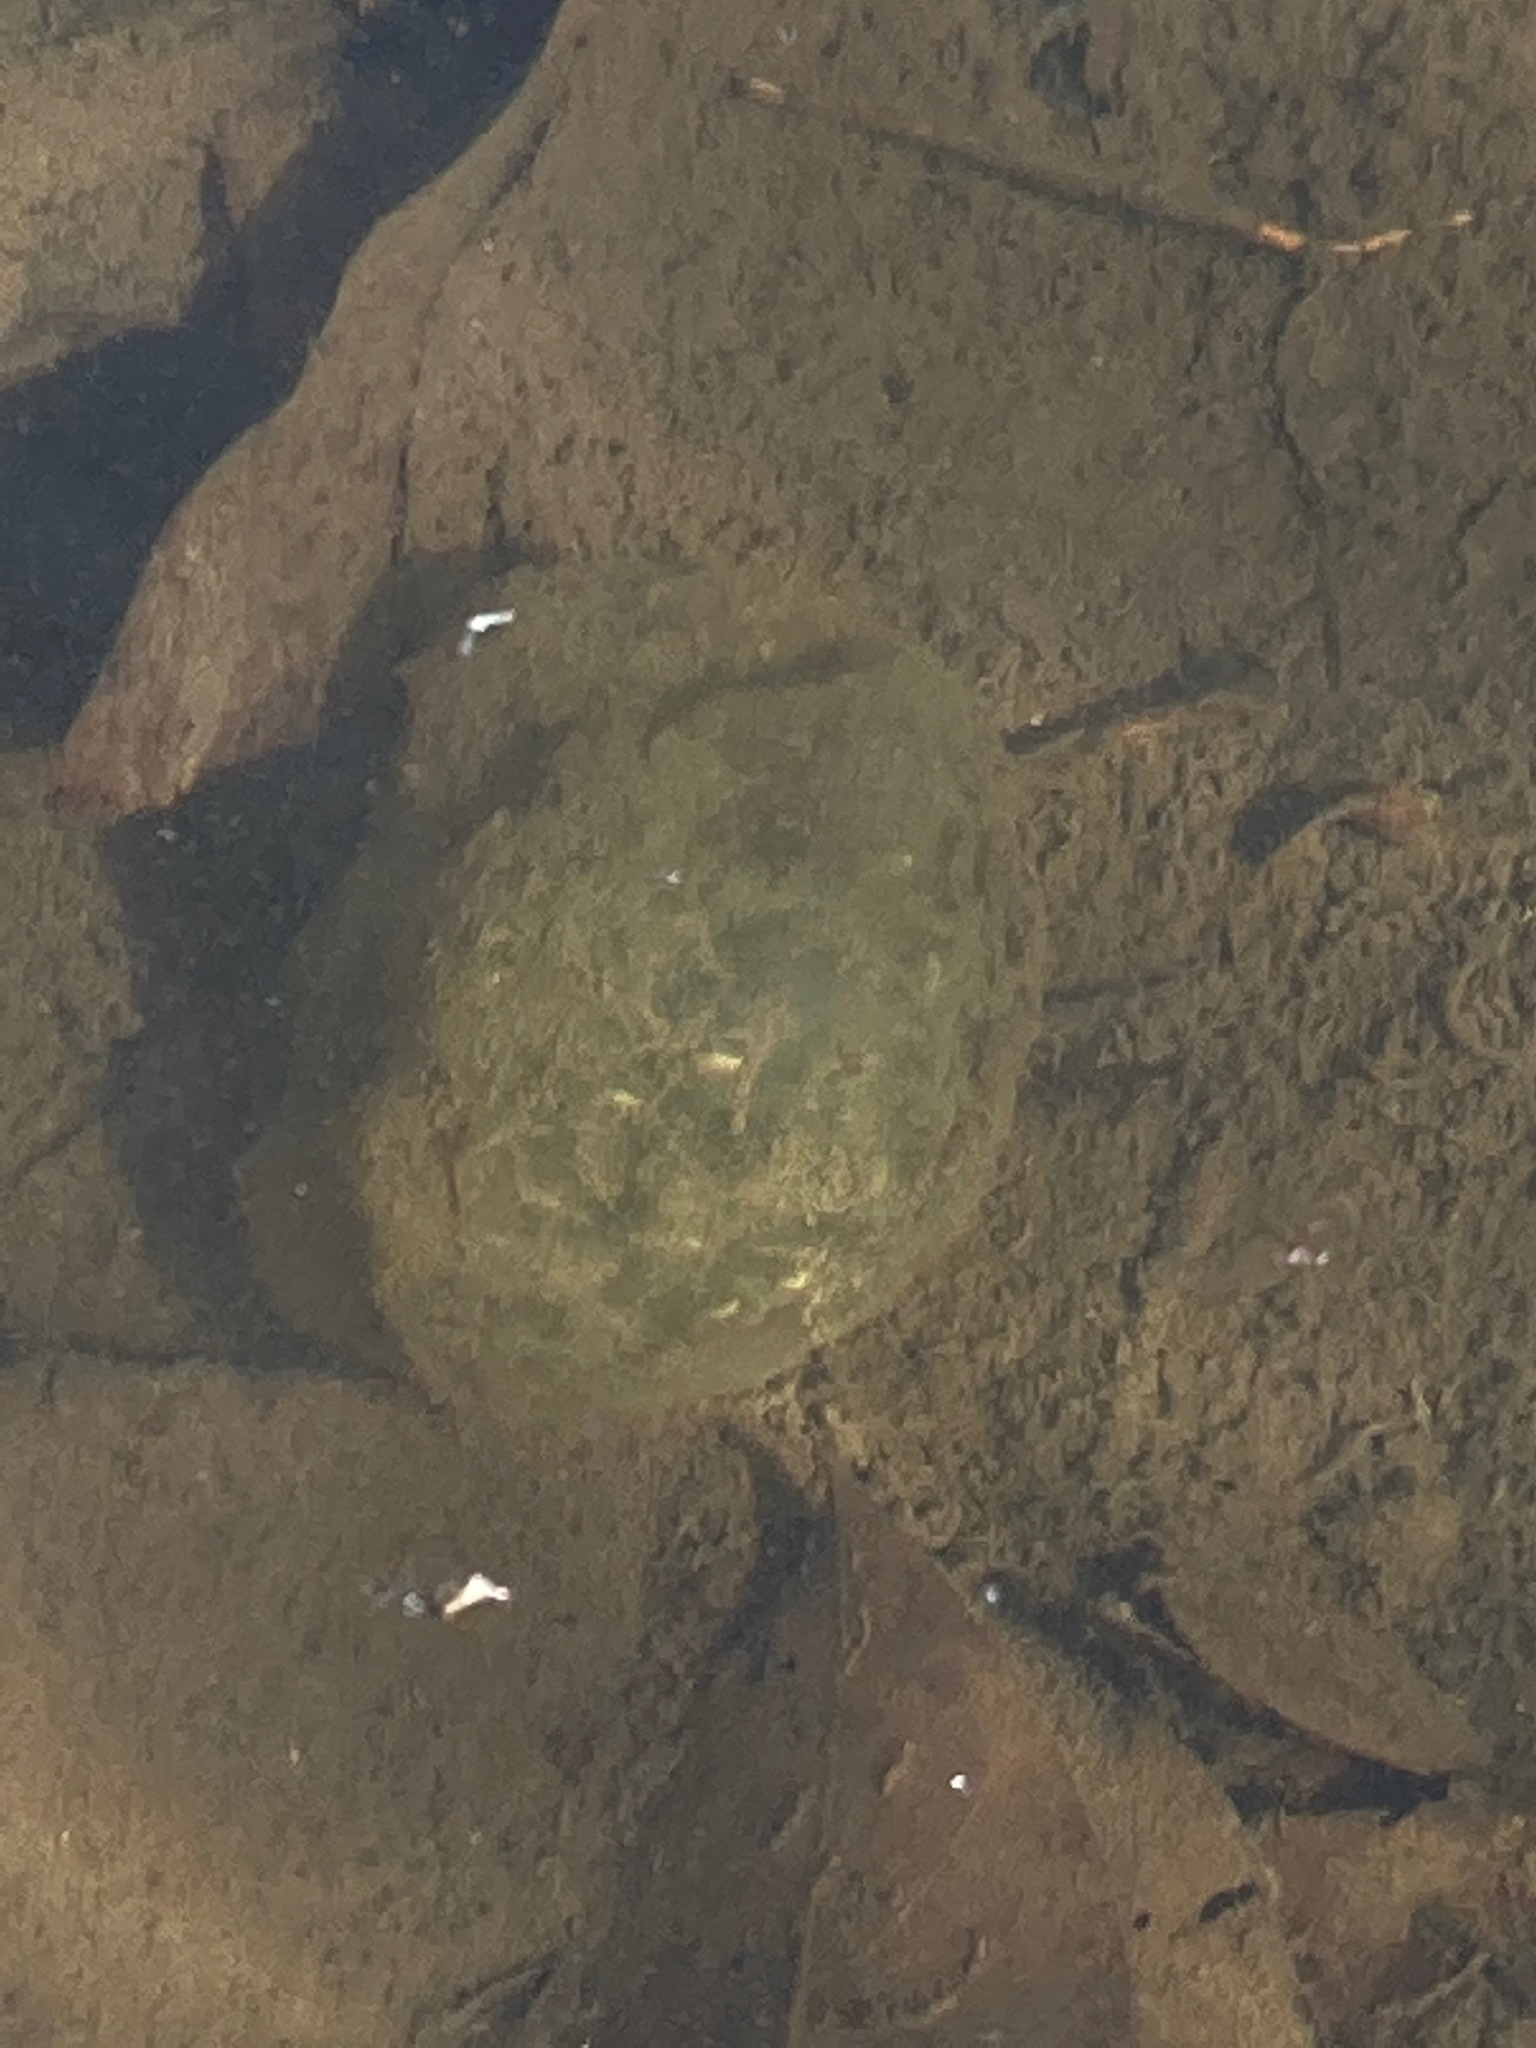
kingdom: Animalia
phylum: Chordata
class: Amphibia
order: Caudata
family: Ambystomatidae
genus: Ambystoma
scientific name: Ambystoma gracile
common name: Northwestern salamander
